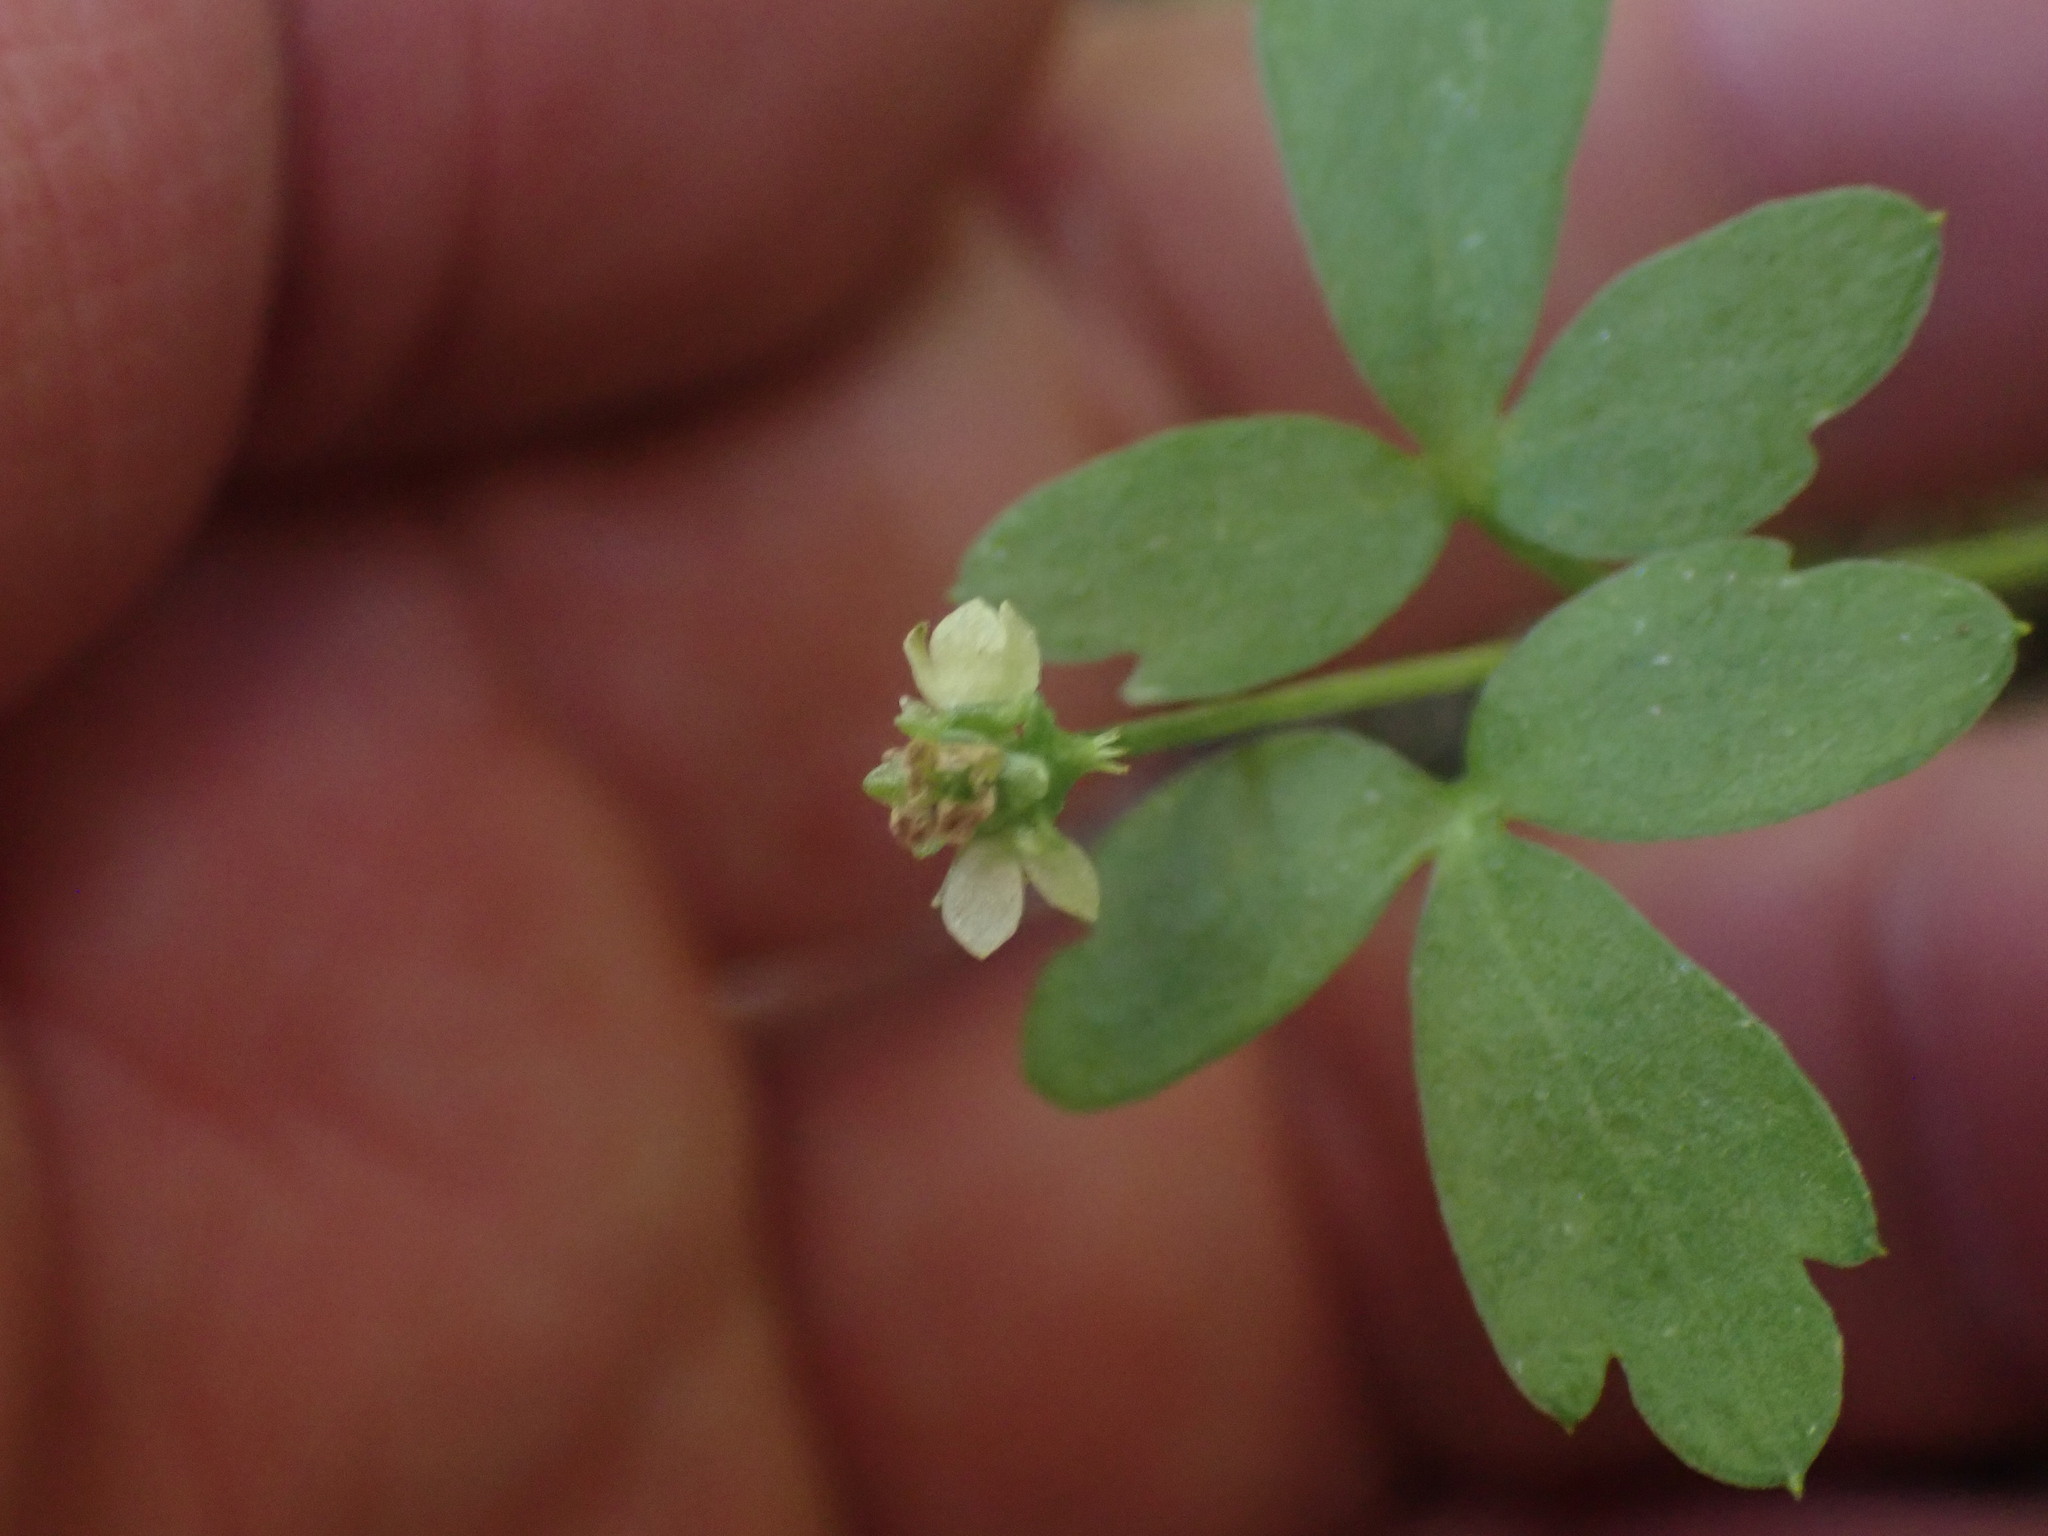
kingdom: Plantae
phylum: Tracheophyta
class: Magnoliopsida
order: Dipsacales
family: Viburnaceae
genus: Adoxa
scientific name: Adoxa moschatellina
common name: Moschatel
